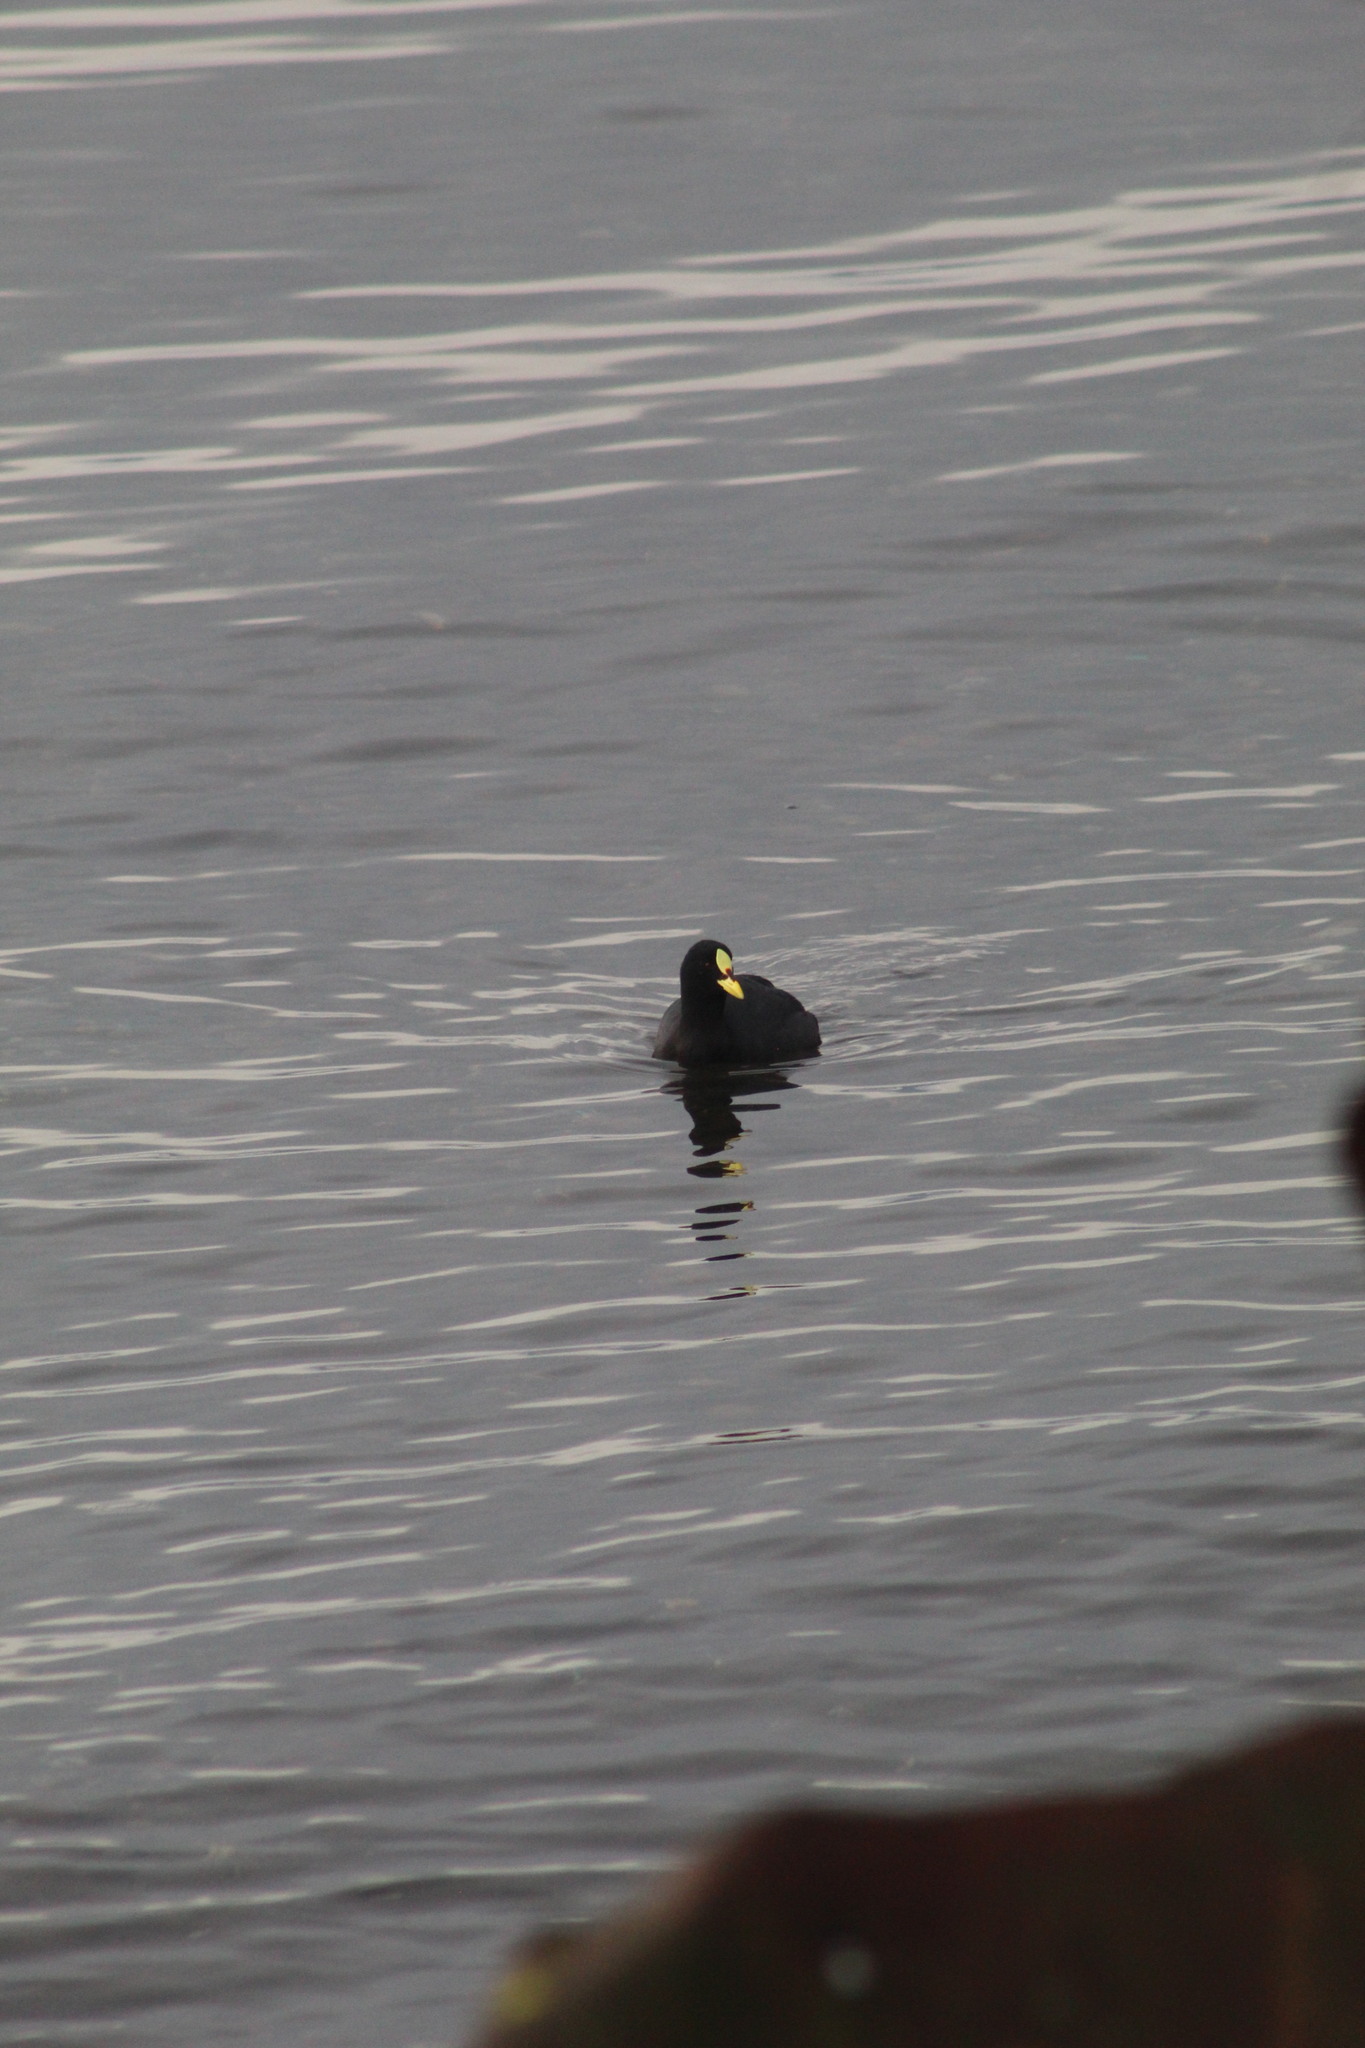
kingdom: Animalia
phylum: Chordata
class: Aves
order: Gruiformes
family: Rallidae
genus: Fulica
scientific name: Fulica armillata
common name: Red-gartered coot
